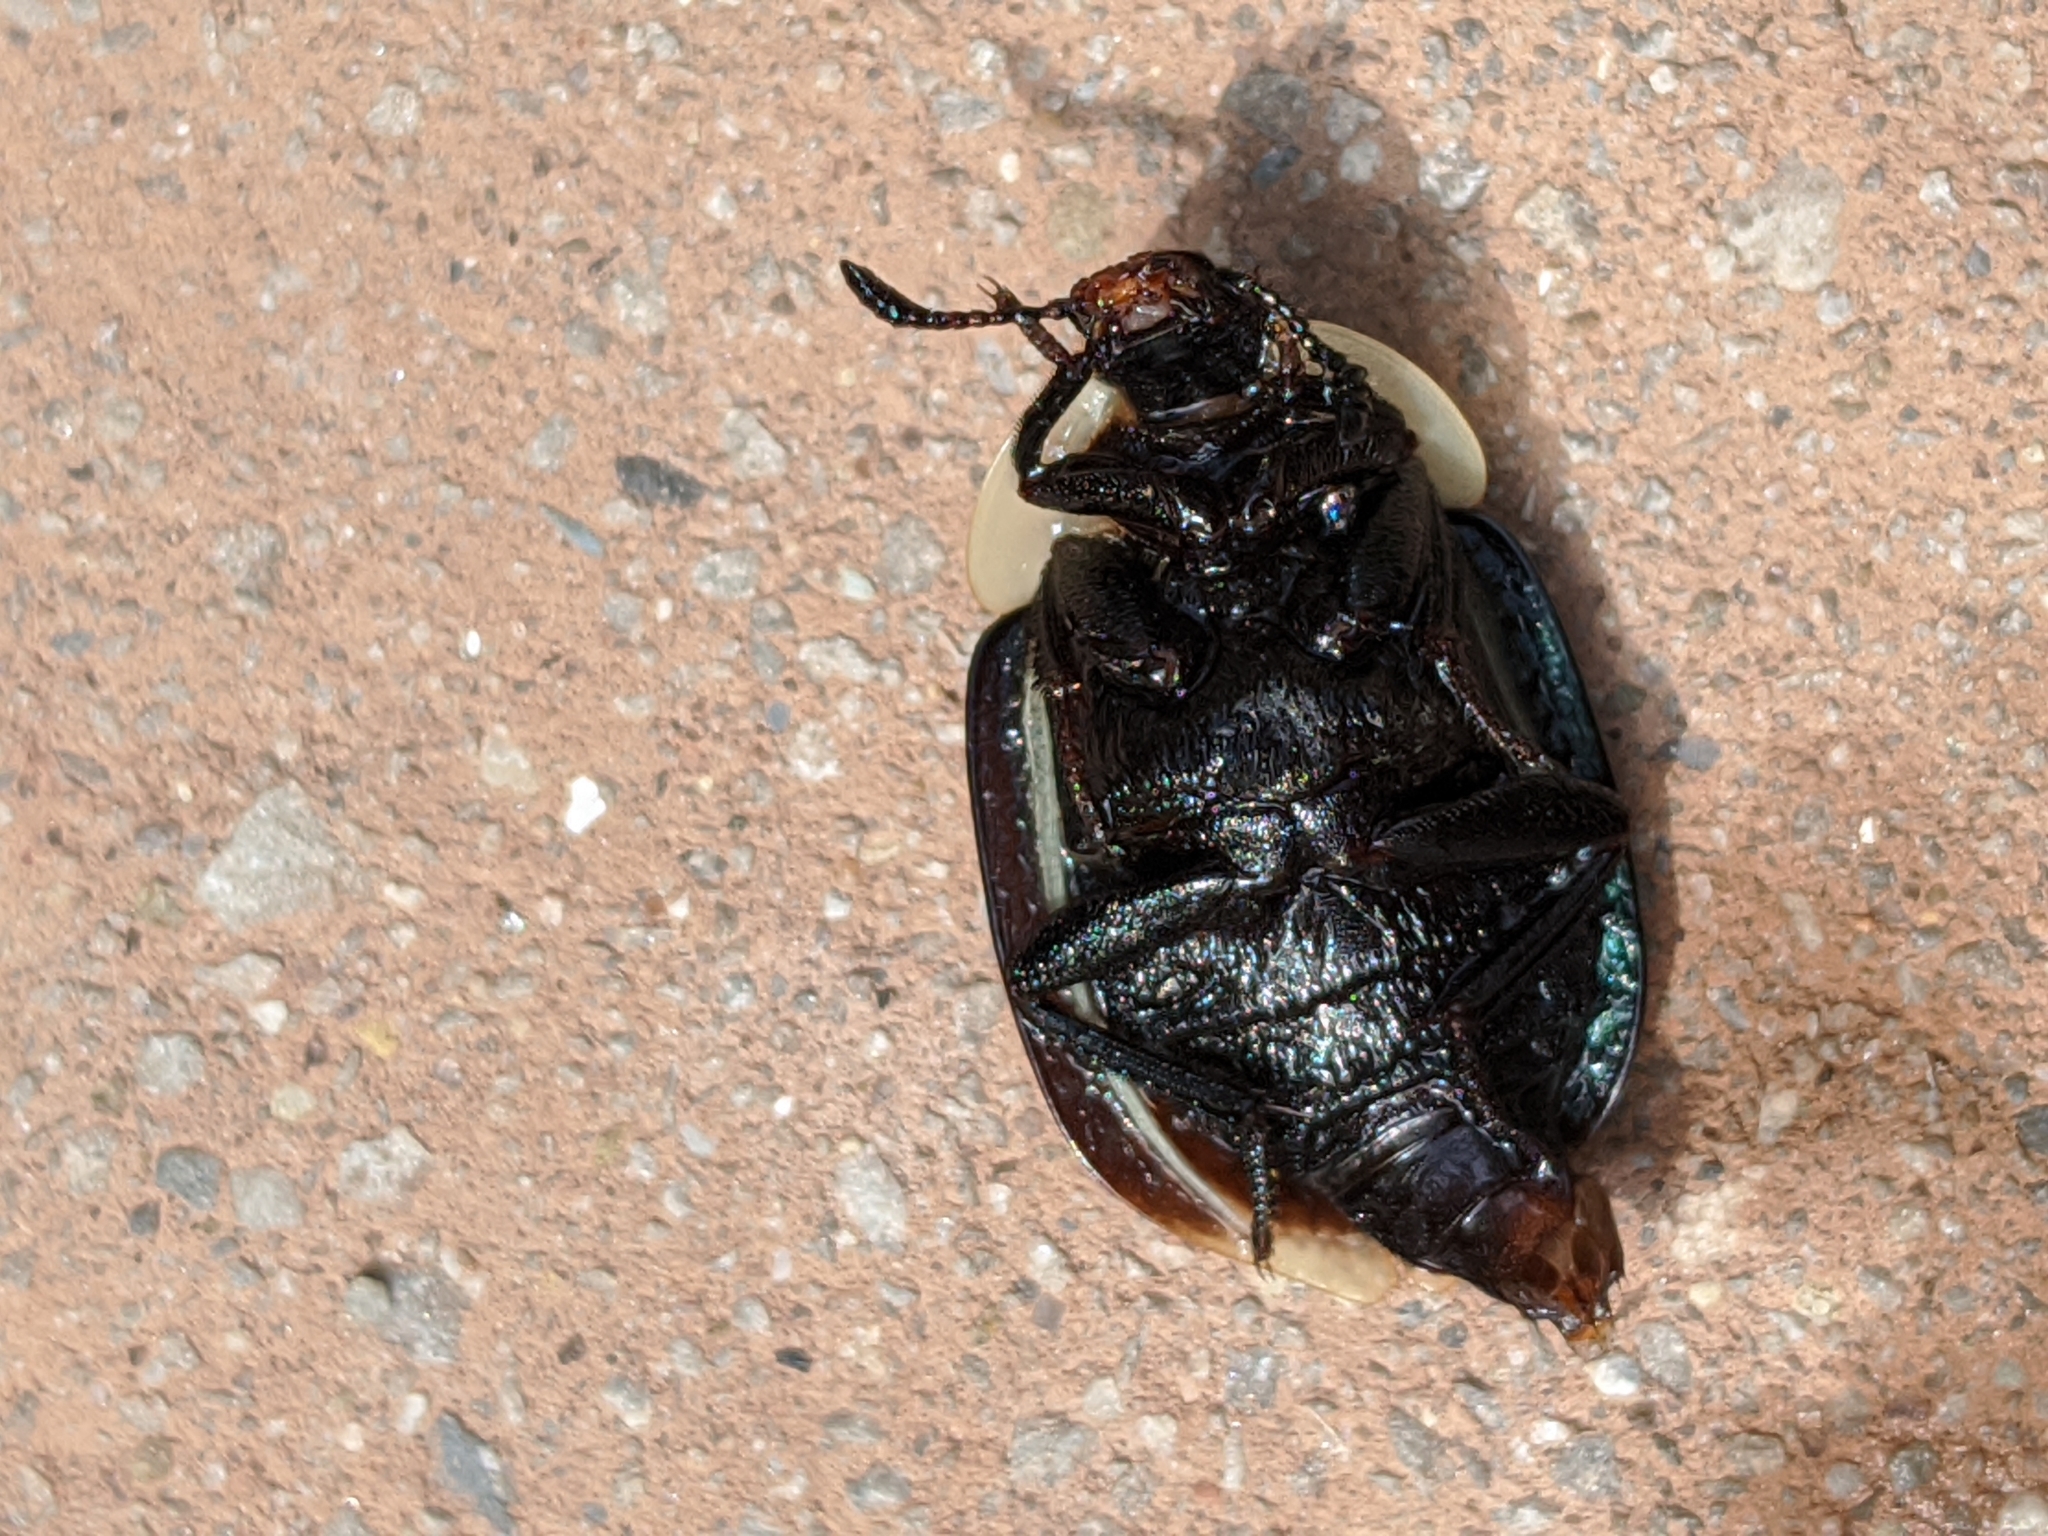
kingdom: Animalia
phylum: Arthropoda
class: Insecta
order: Coleoptera
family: Staphylinidae
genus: Necrophila
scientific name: Necrophila americana
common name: American carrion beetle
